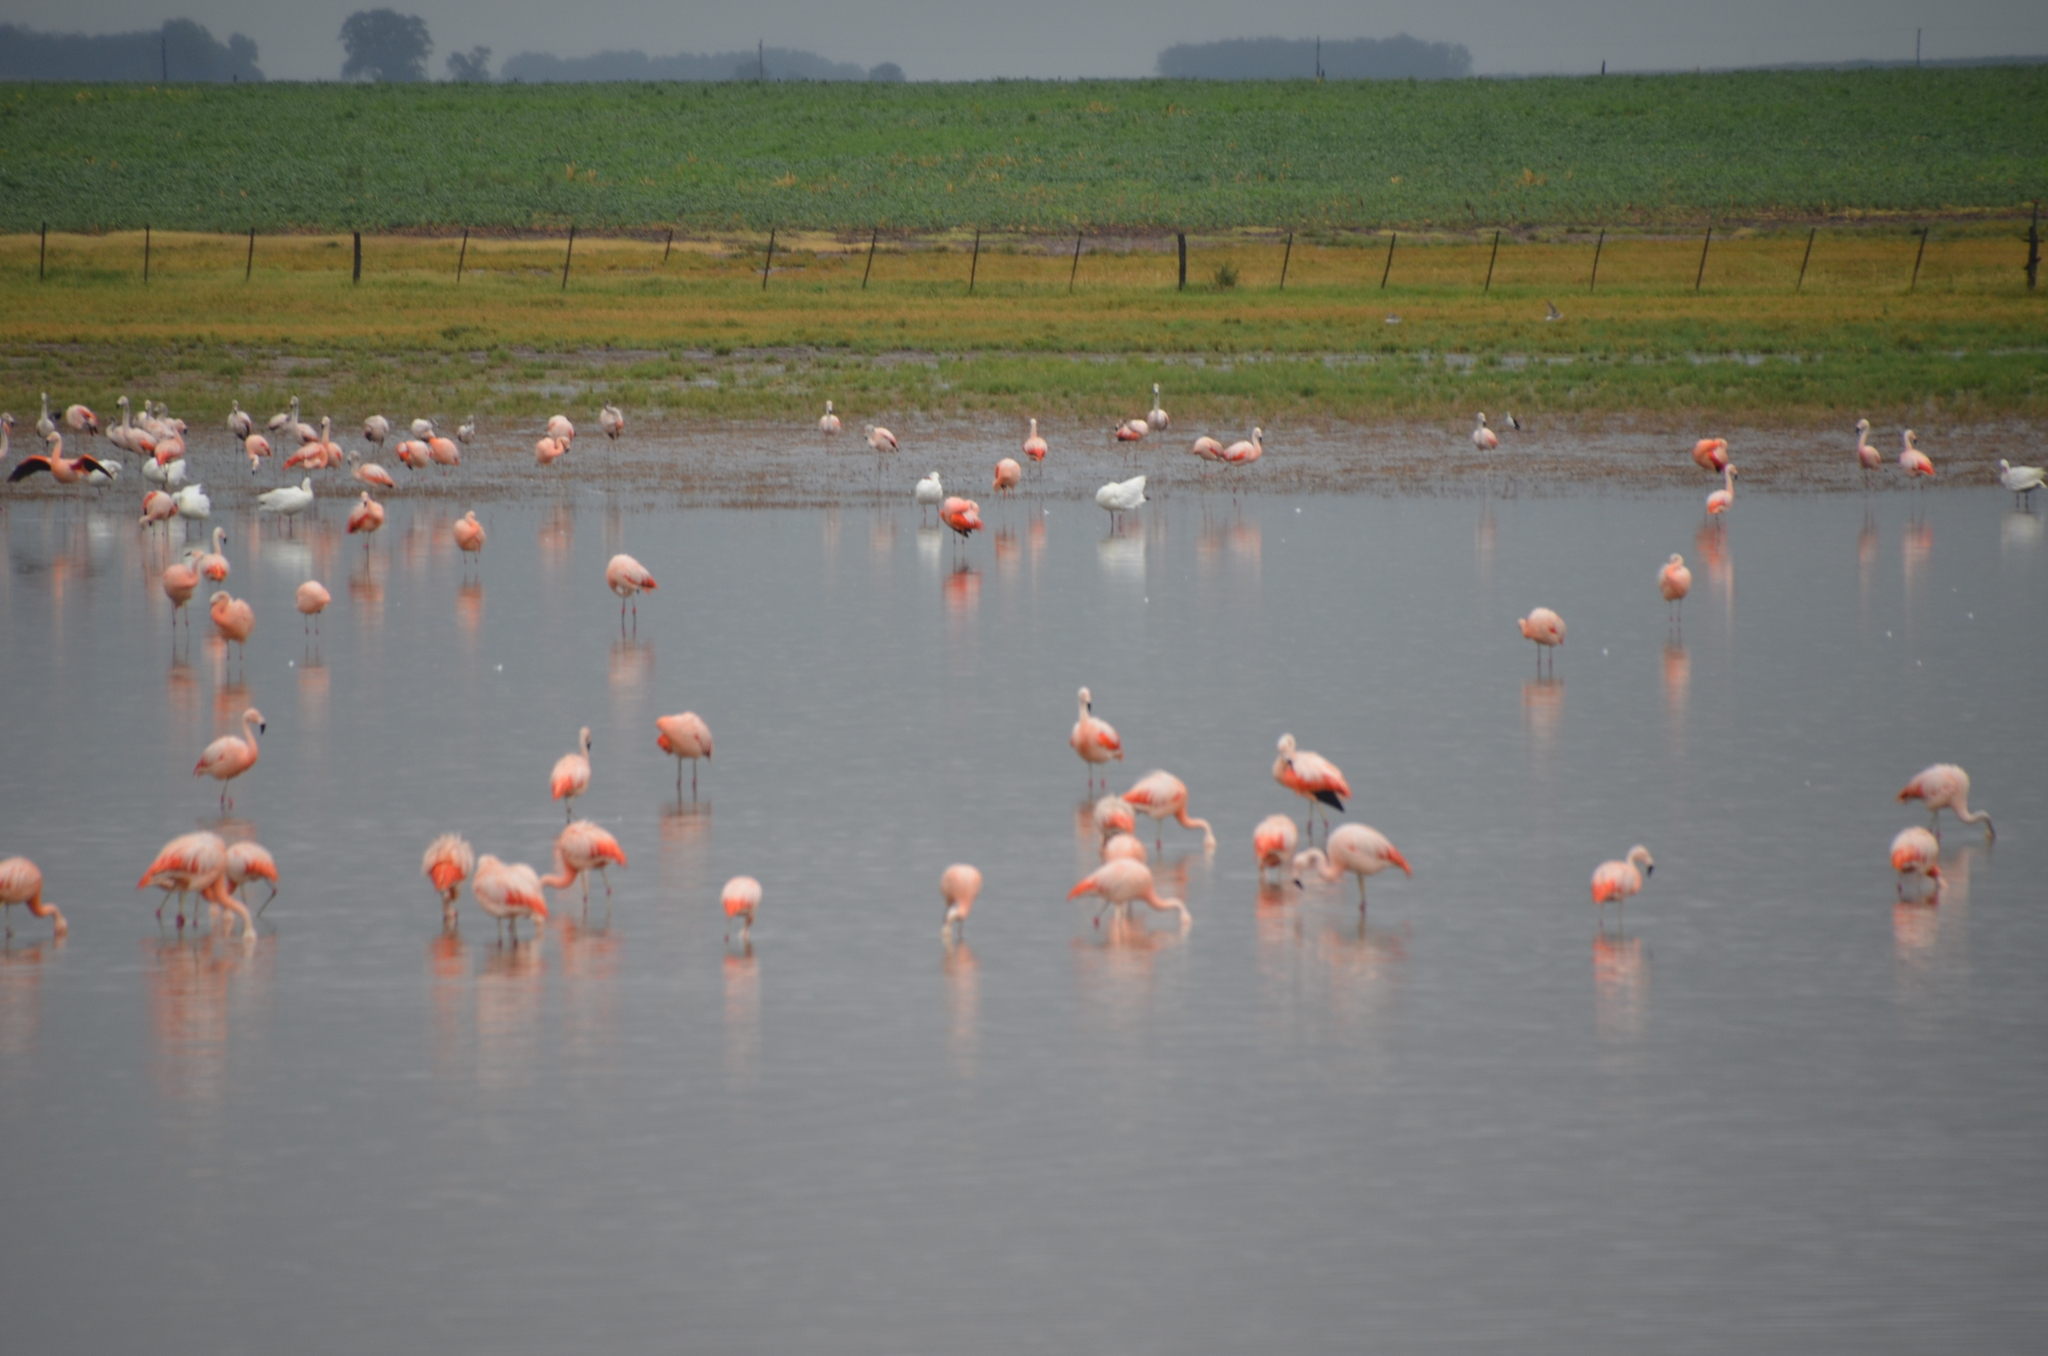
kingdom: Animalia
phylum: Chordata
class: Aves
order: Phoenicopteriformes
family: Phoenicopteridae
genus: Phoenicopterus
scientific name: Phoenicopterus chilensis
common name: Chilean flamingo
